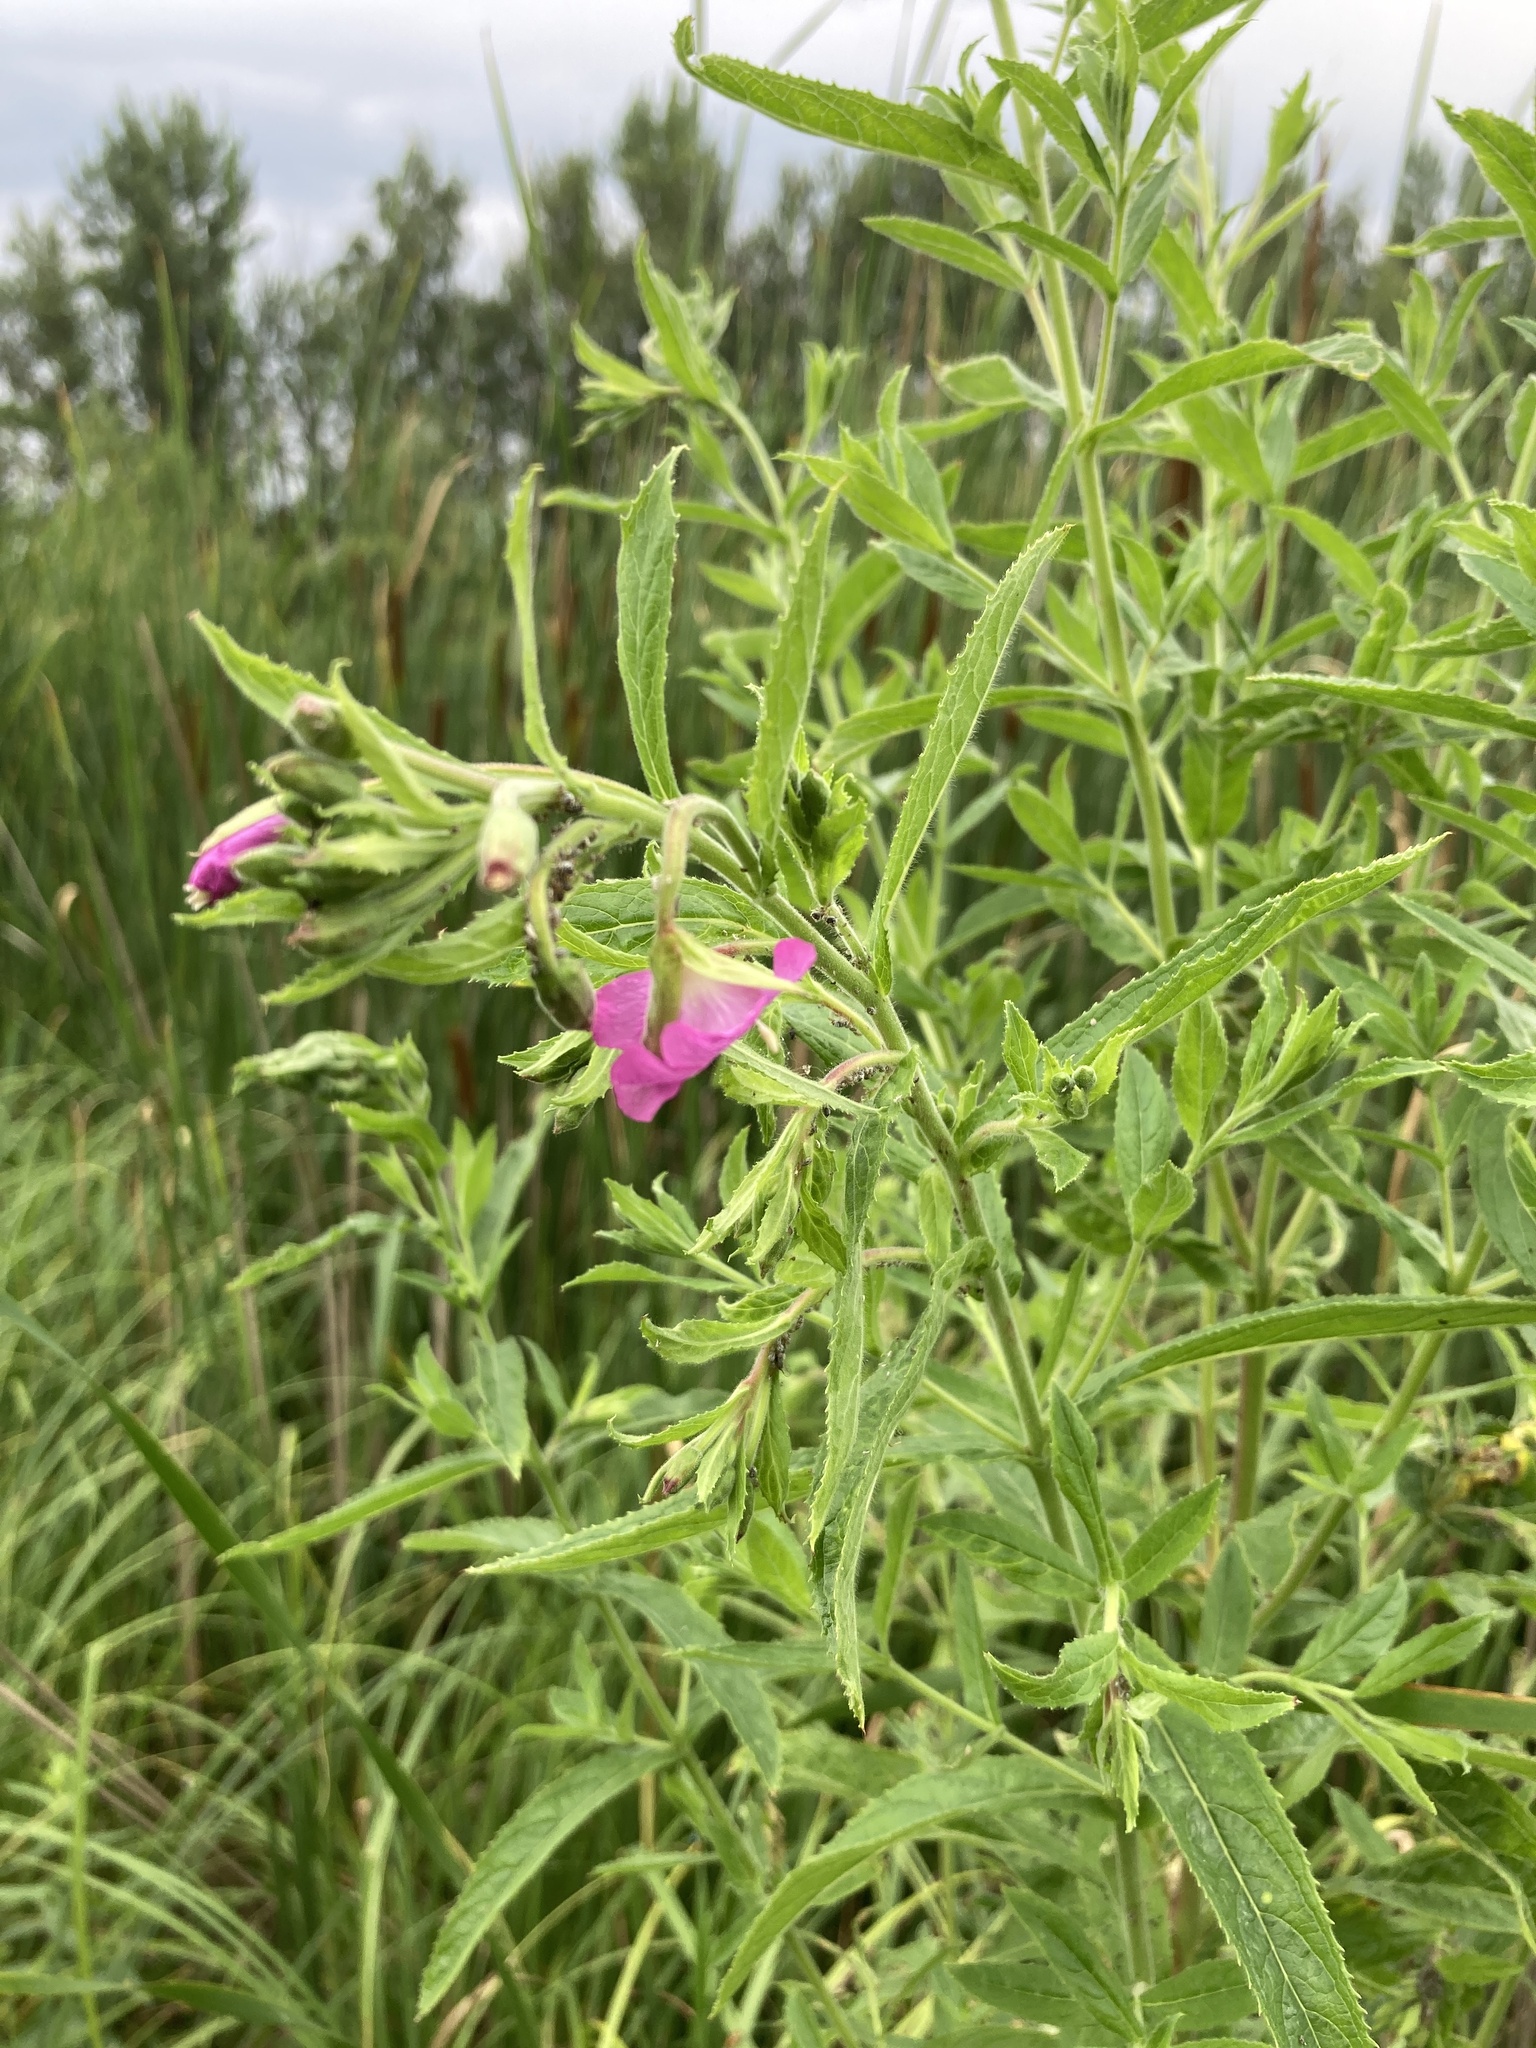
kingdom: Plantae
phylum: Tracheophyta
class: Magnoliopsida
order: Myrtales
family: Onagraceae
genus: Epilobium
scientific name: Epilobium hirsutum
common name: Great willowherb
